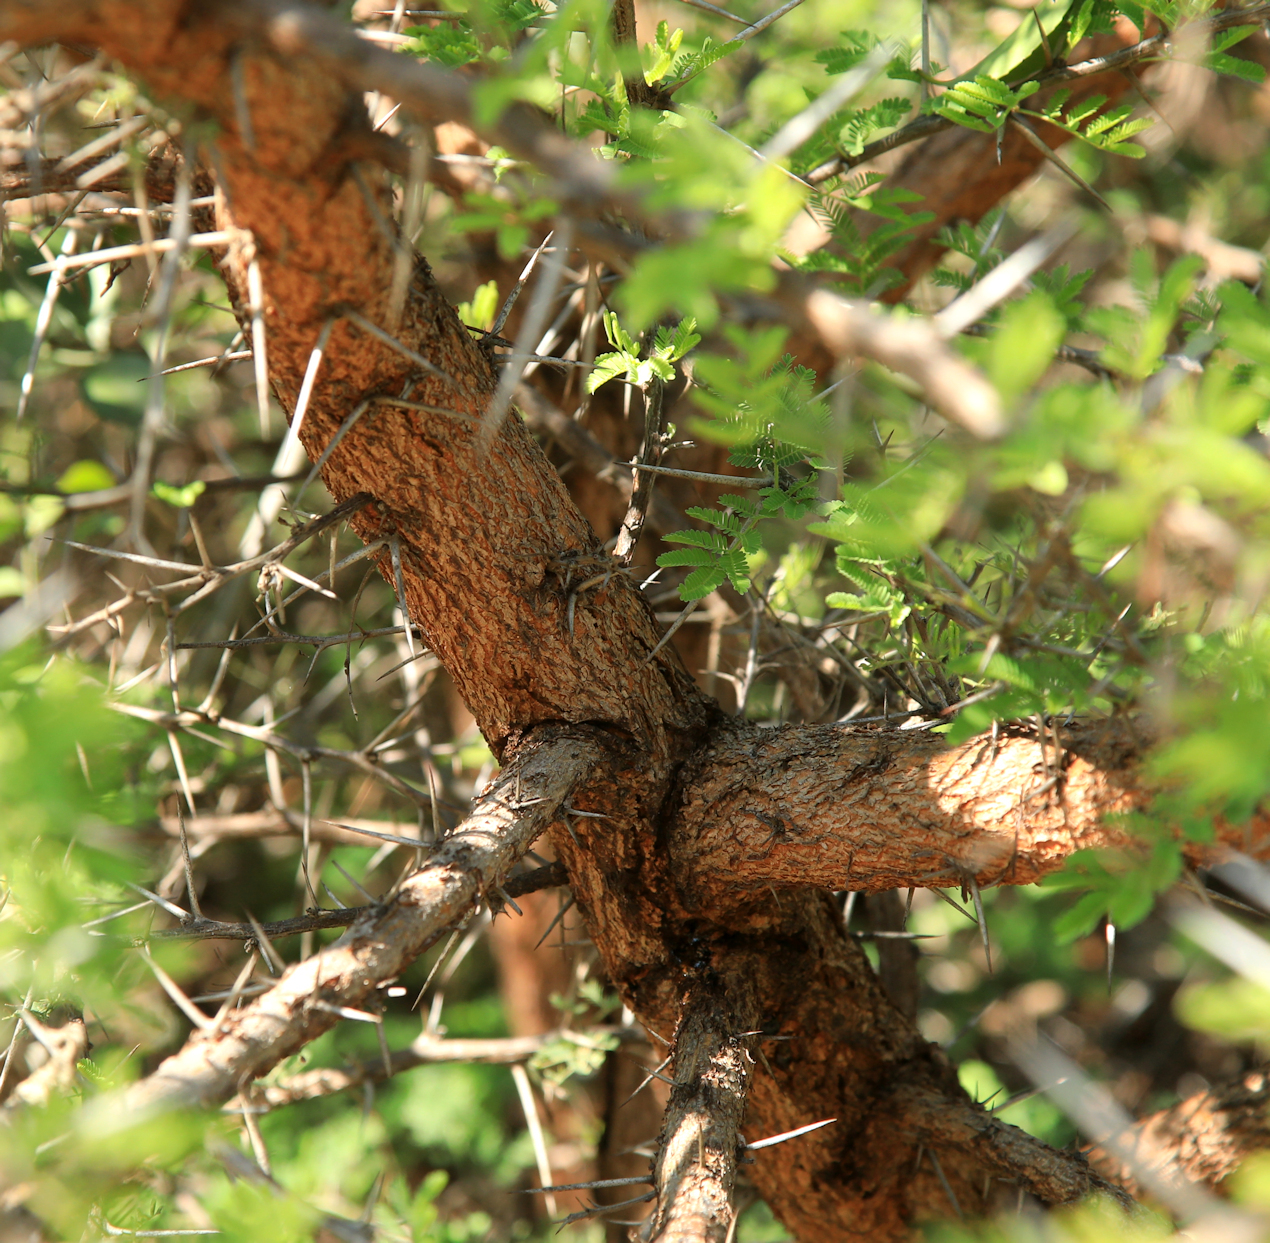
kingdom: Plantae
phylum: Tracheophyta
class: Magnoliopsida
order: Fabales
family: Fabaceae
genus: Vachellia
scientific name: Vachellia nilotica
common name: Arabic gumtree
